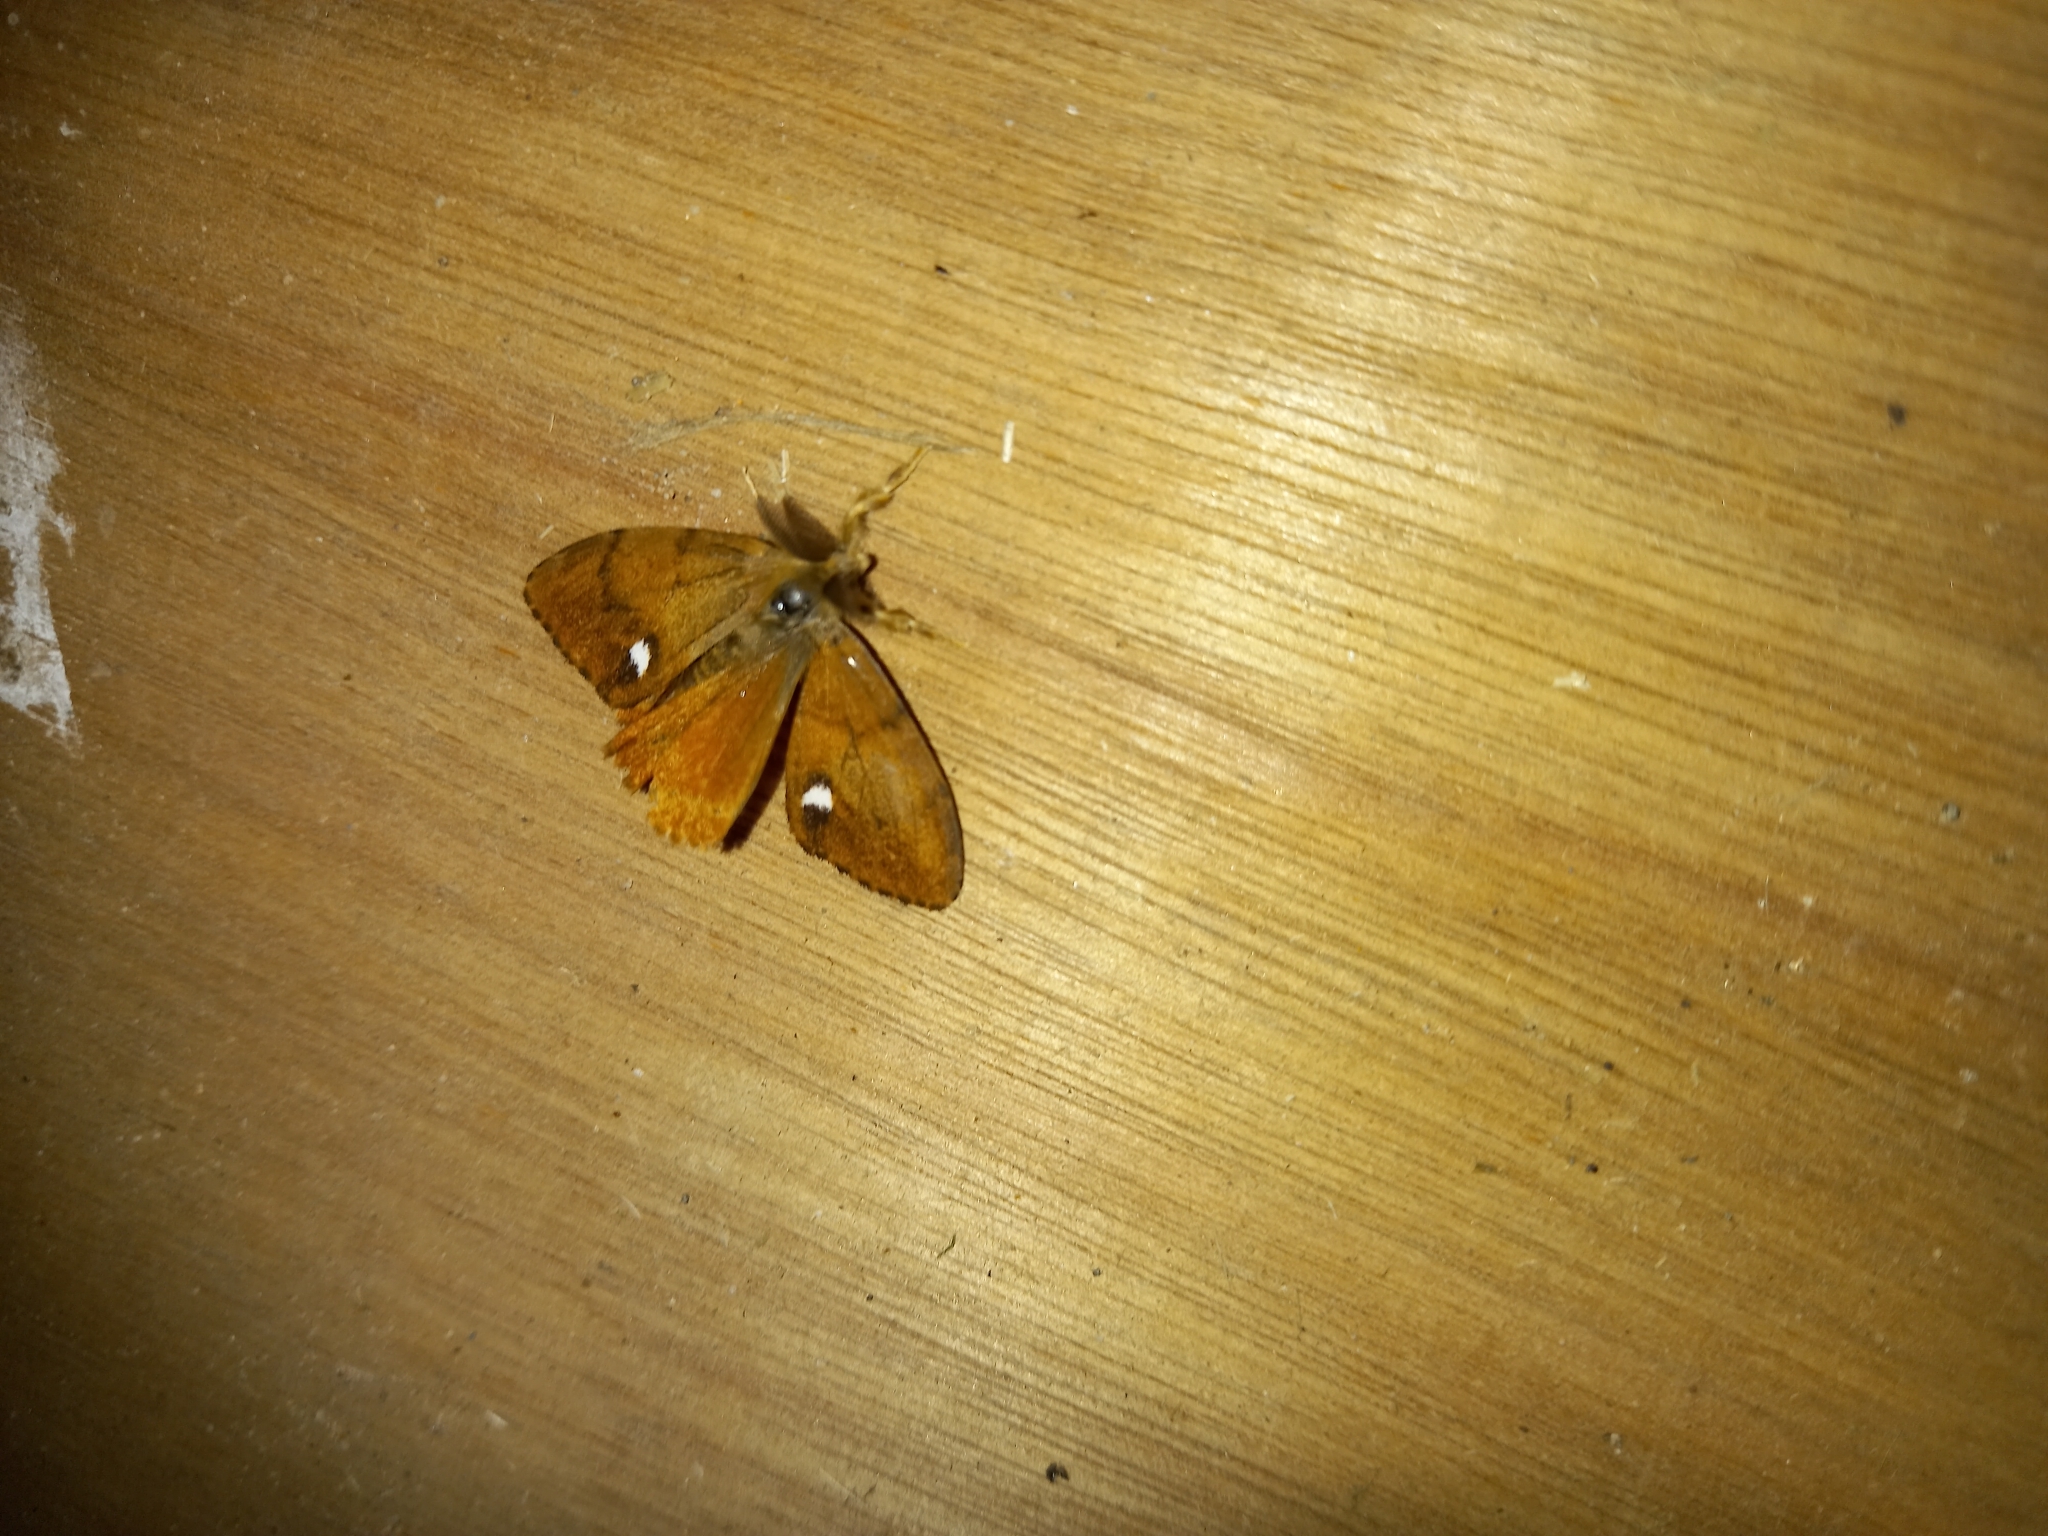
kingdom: Animalia
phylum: Arthropoda
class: Insecta
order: Lepidoptera
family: Erebidae
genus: Orgyia
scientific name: Orgyia antiqua
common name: Vapourer
